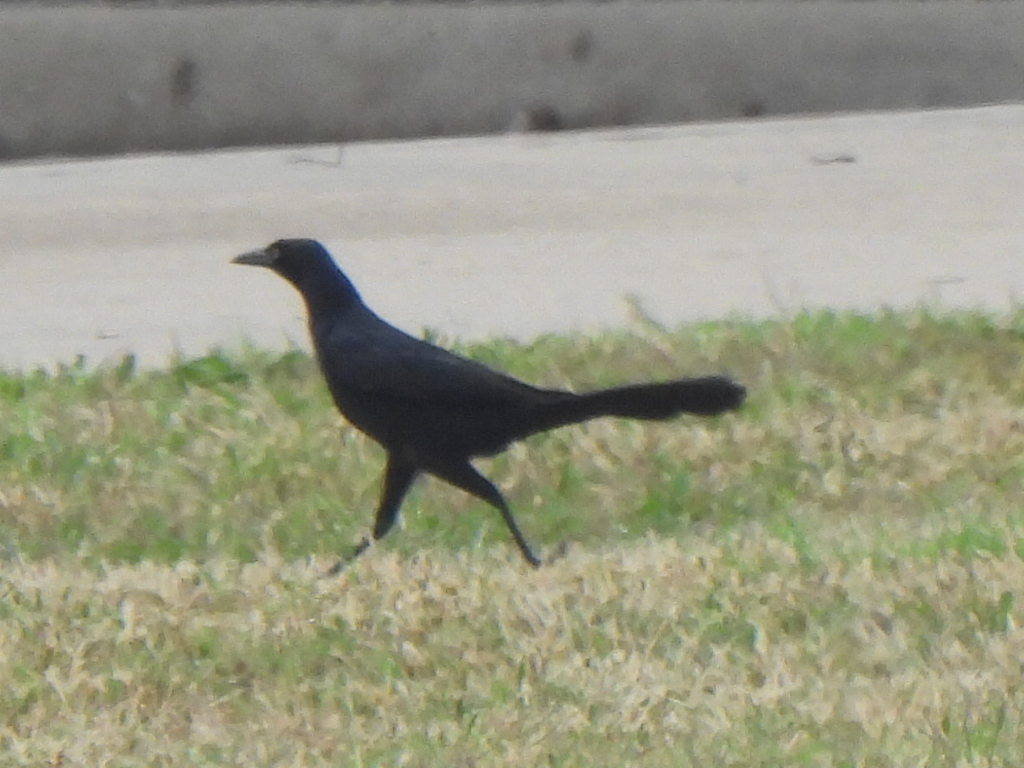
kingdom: Animalia
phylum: Chordata
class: Aves
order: Passeriformes
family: Icteridae
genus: Quiscalus
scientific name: Quiscalus mexicanus
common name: Great-tailed grackle
